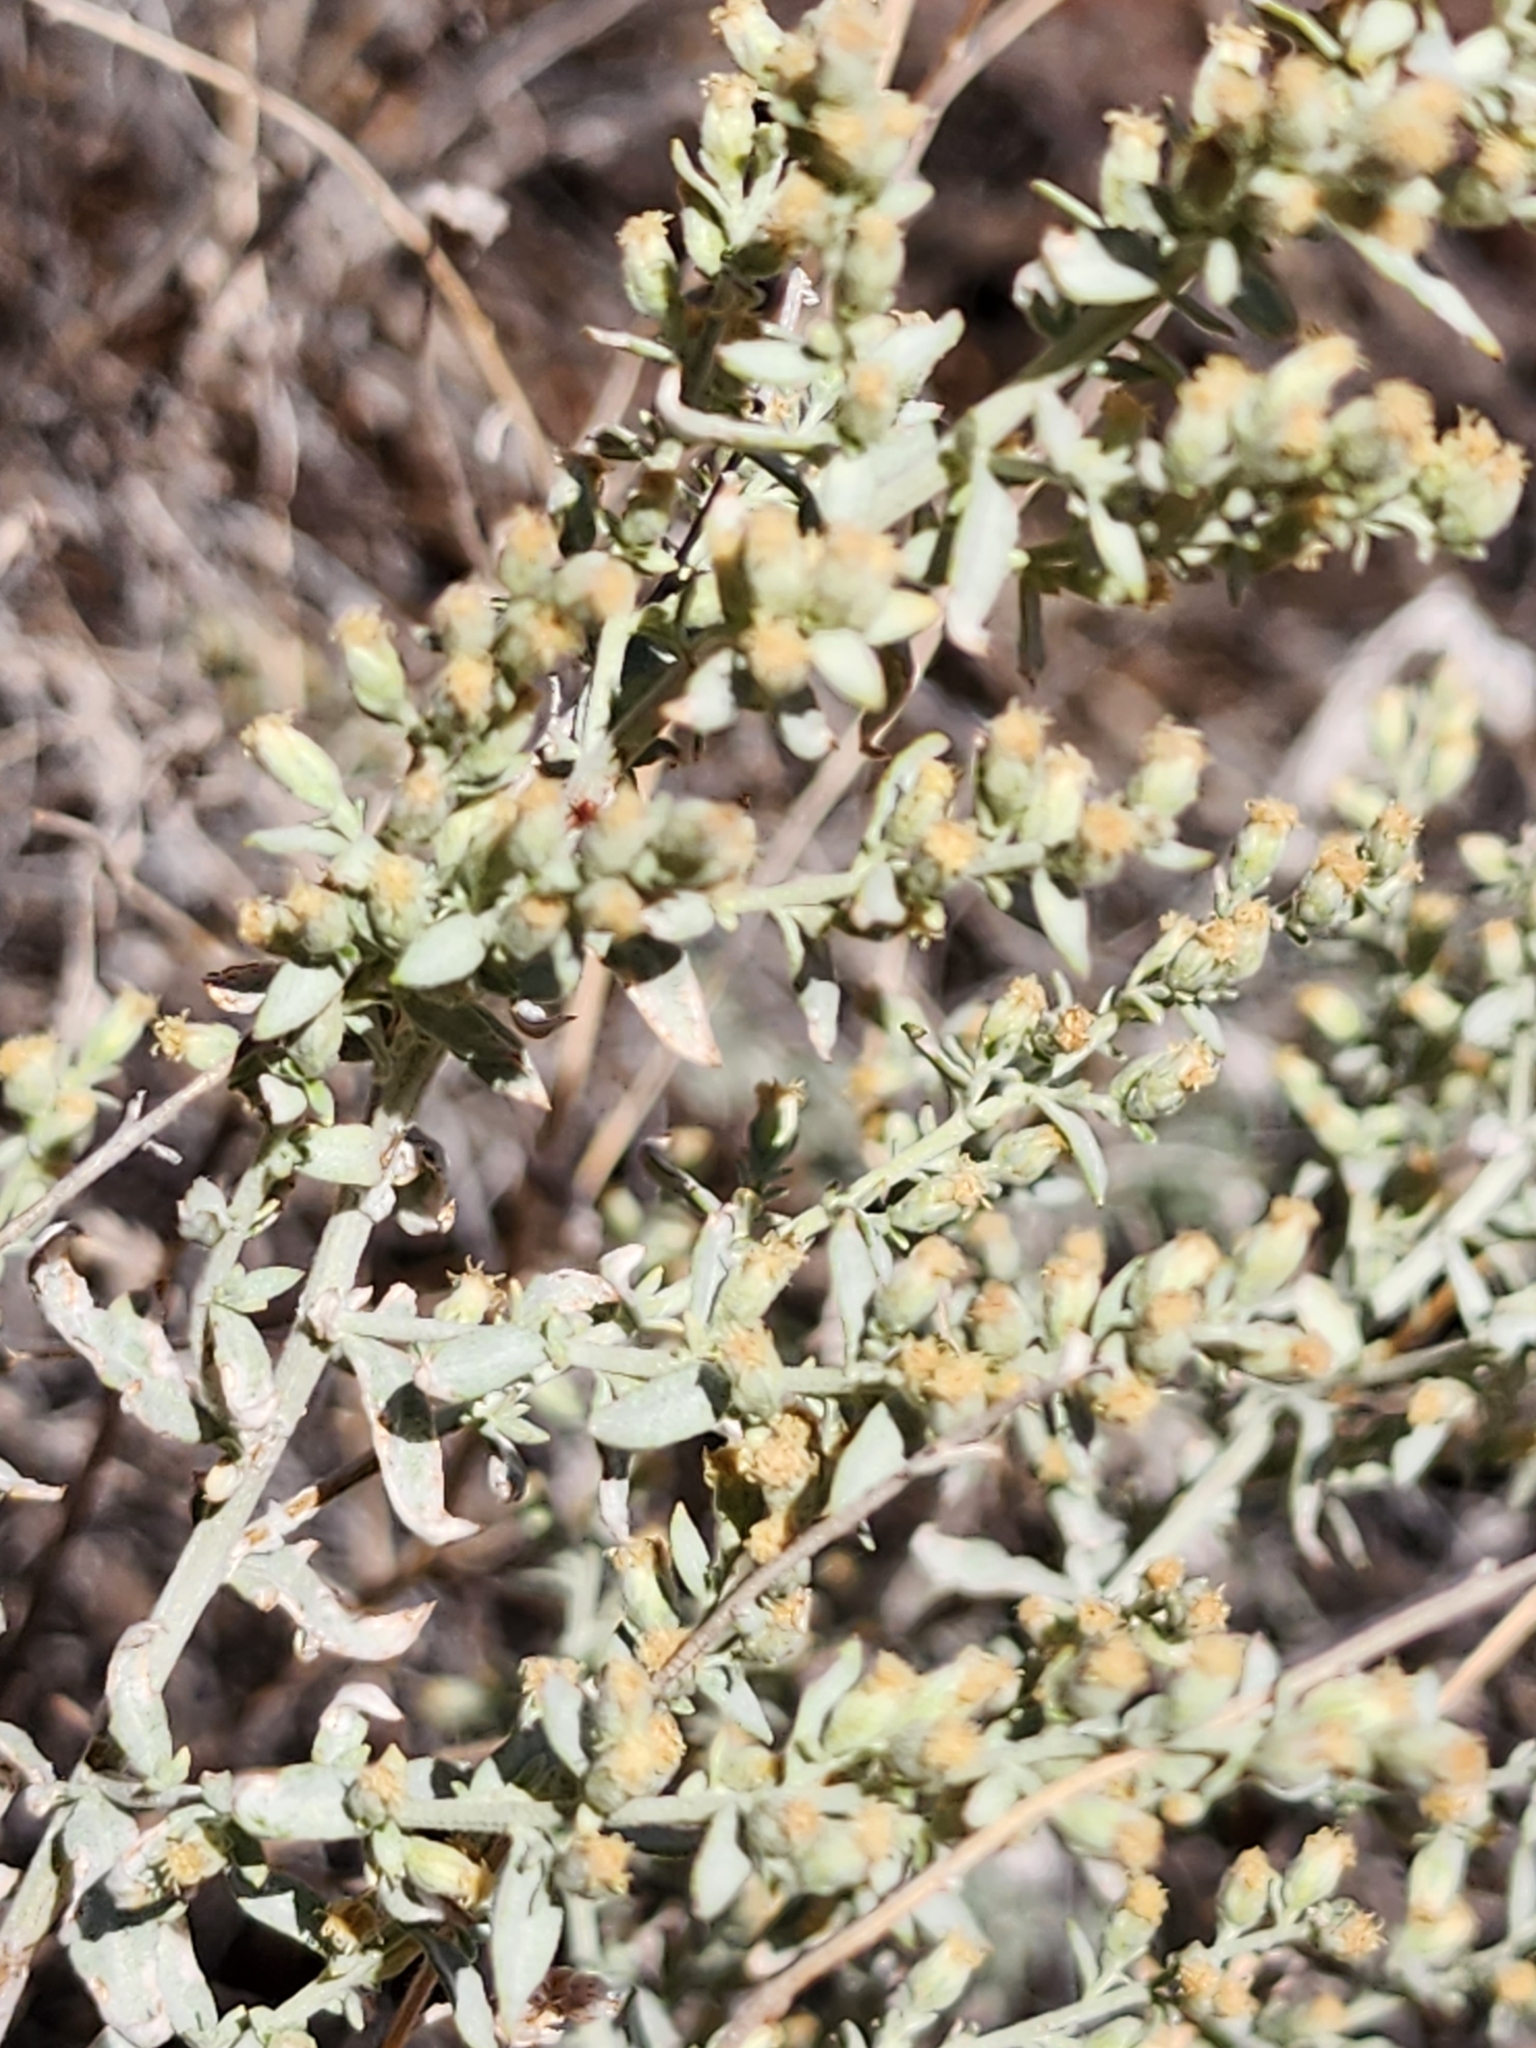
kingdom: Plantae
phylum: Tracheophyta
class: Magnoliopsida
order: Asterales
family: Asteraceae
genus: Artemisia
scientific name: Artemisia ludoviciana
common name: Western mugwort
